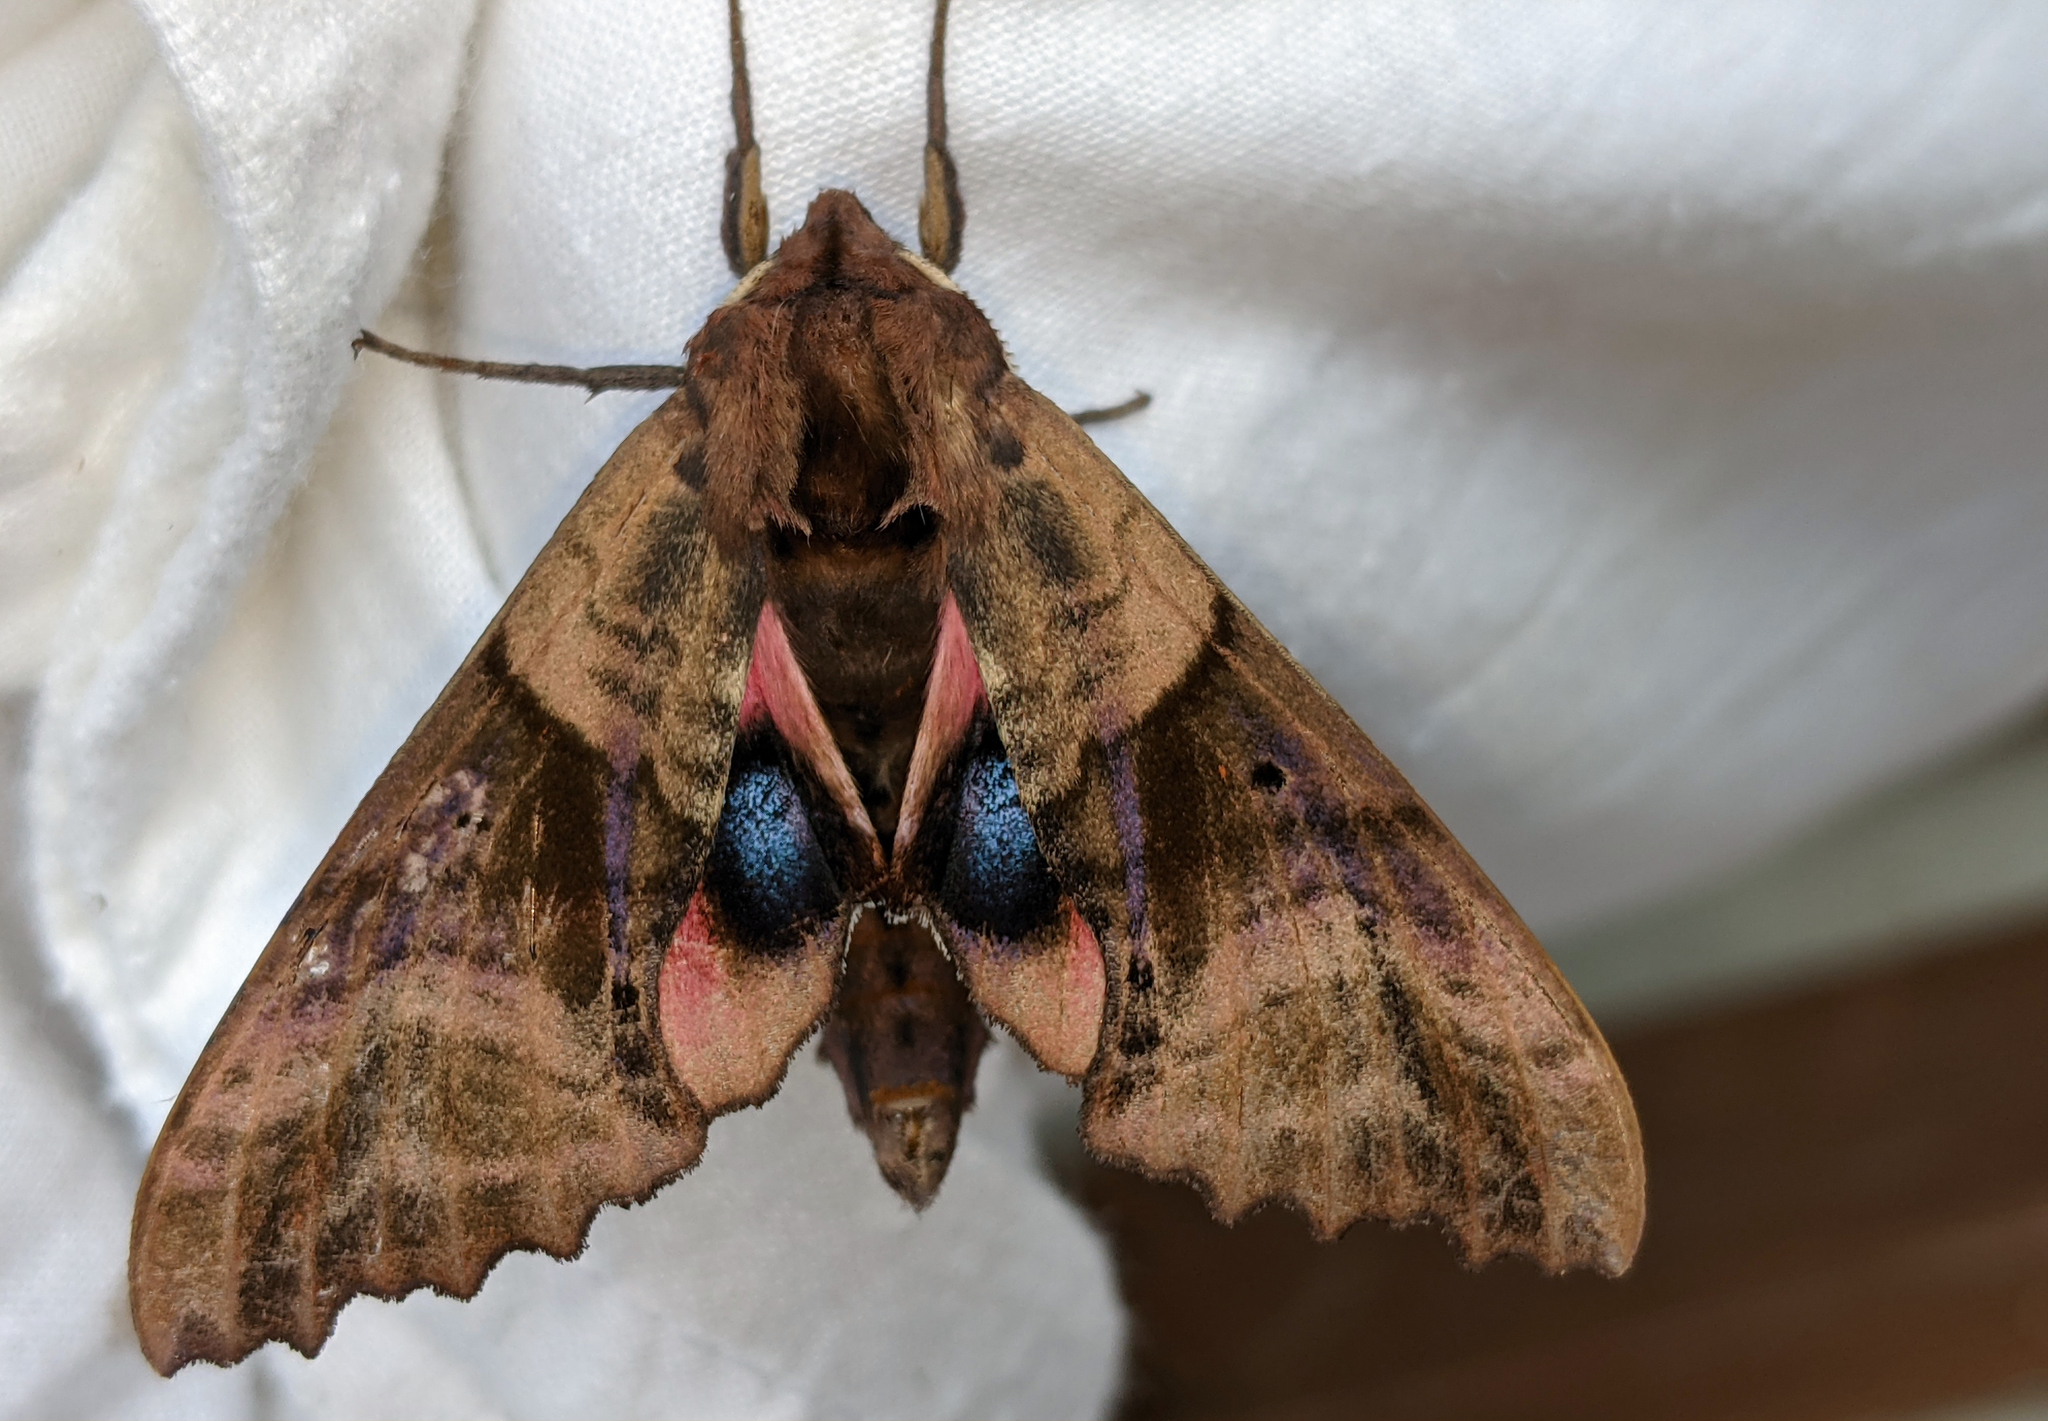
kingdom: Animalia
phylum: Arthropoda
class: Insecta
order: Lepidoptera
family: Sphingidae
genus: Paonias
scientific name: Paonias excaecata
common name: Blind-eyed sphinx
